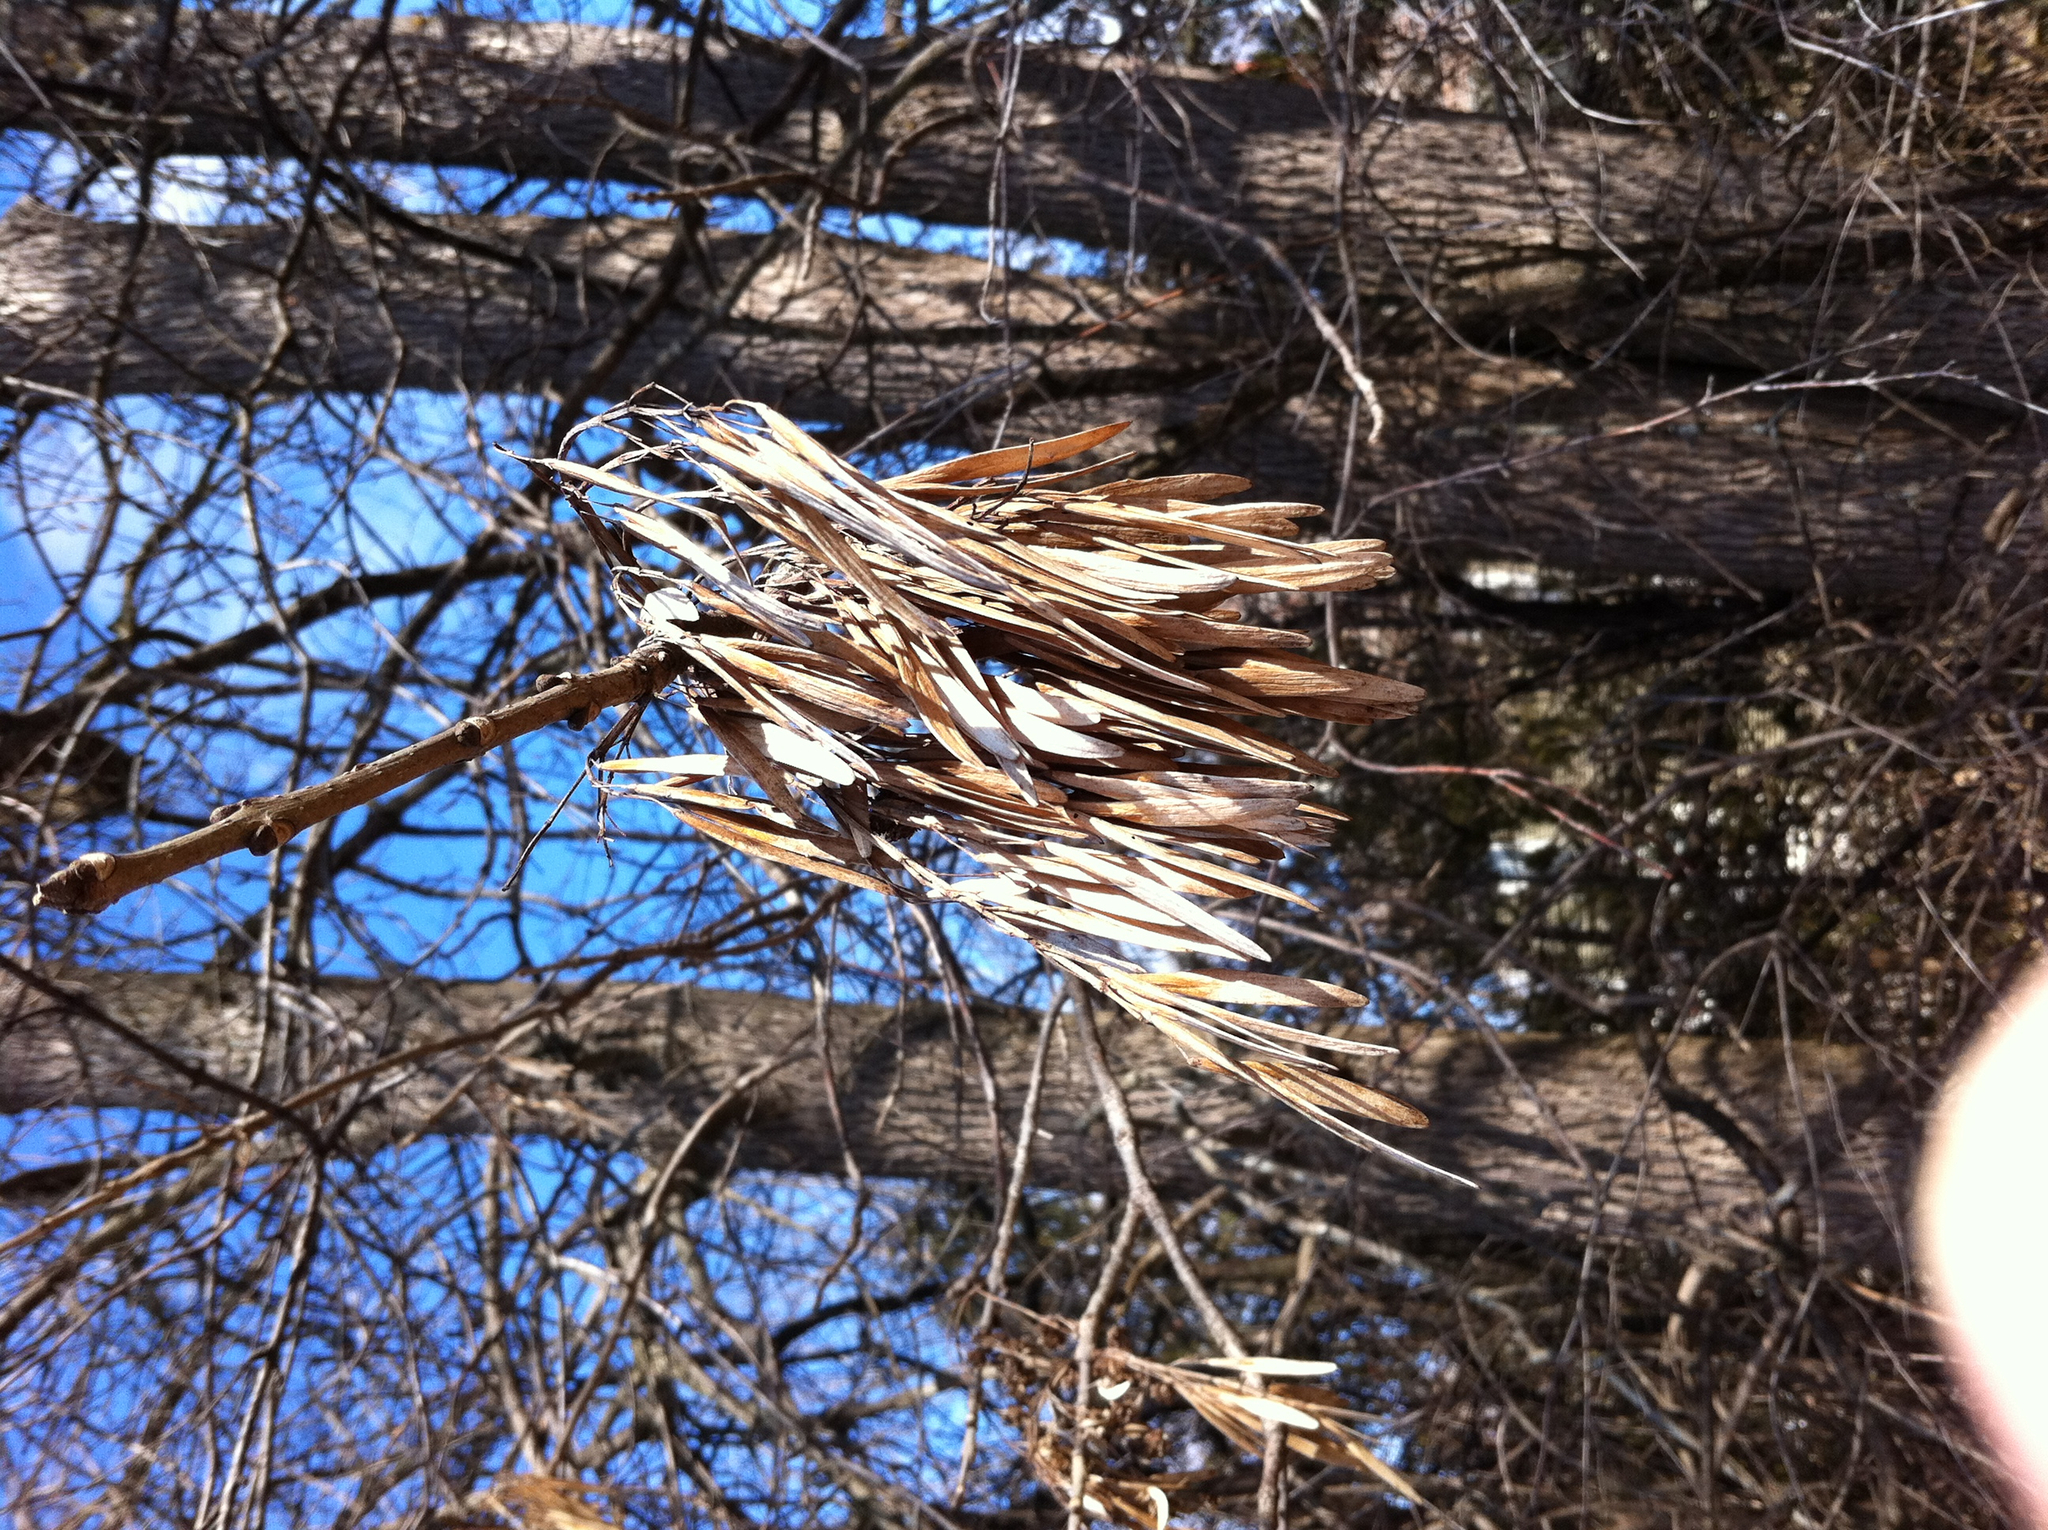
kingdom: Plantae
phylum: Tracheophyta
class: Magnoliopsida
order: Lamiales
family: Oleaceae
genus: Fraxinus
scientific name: Fraxinus americana
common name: White ash
